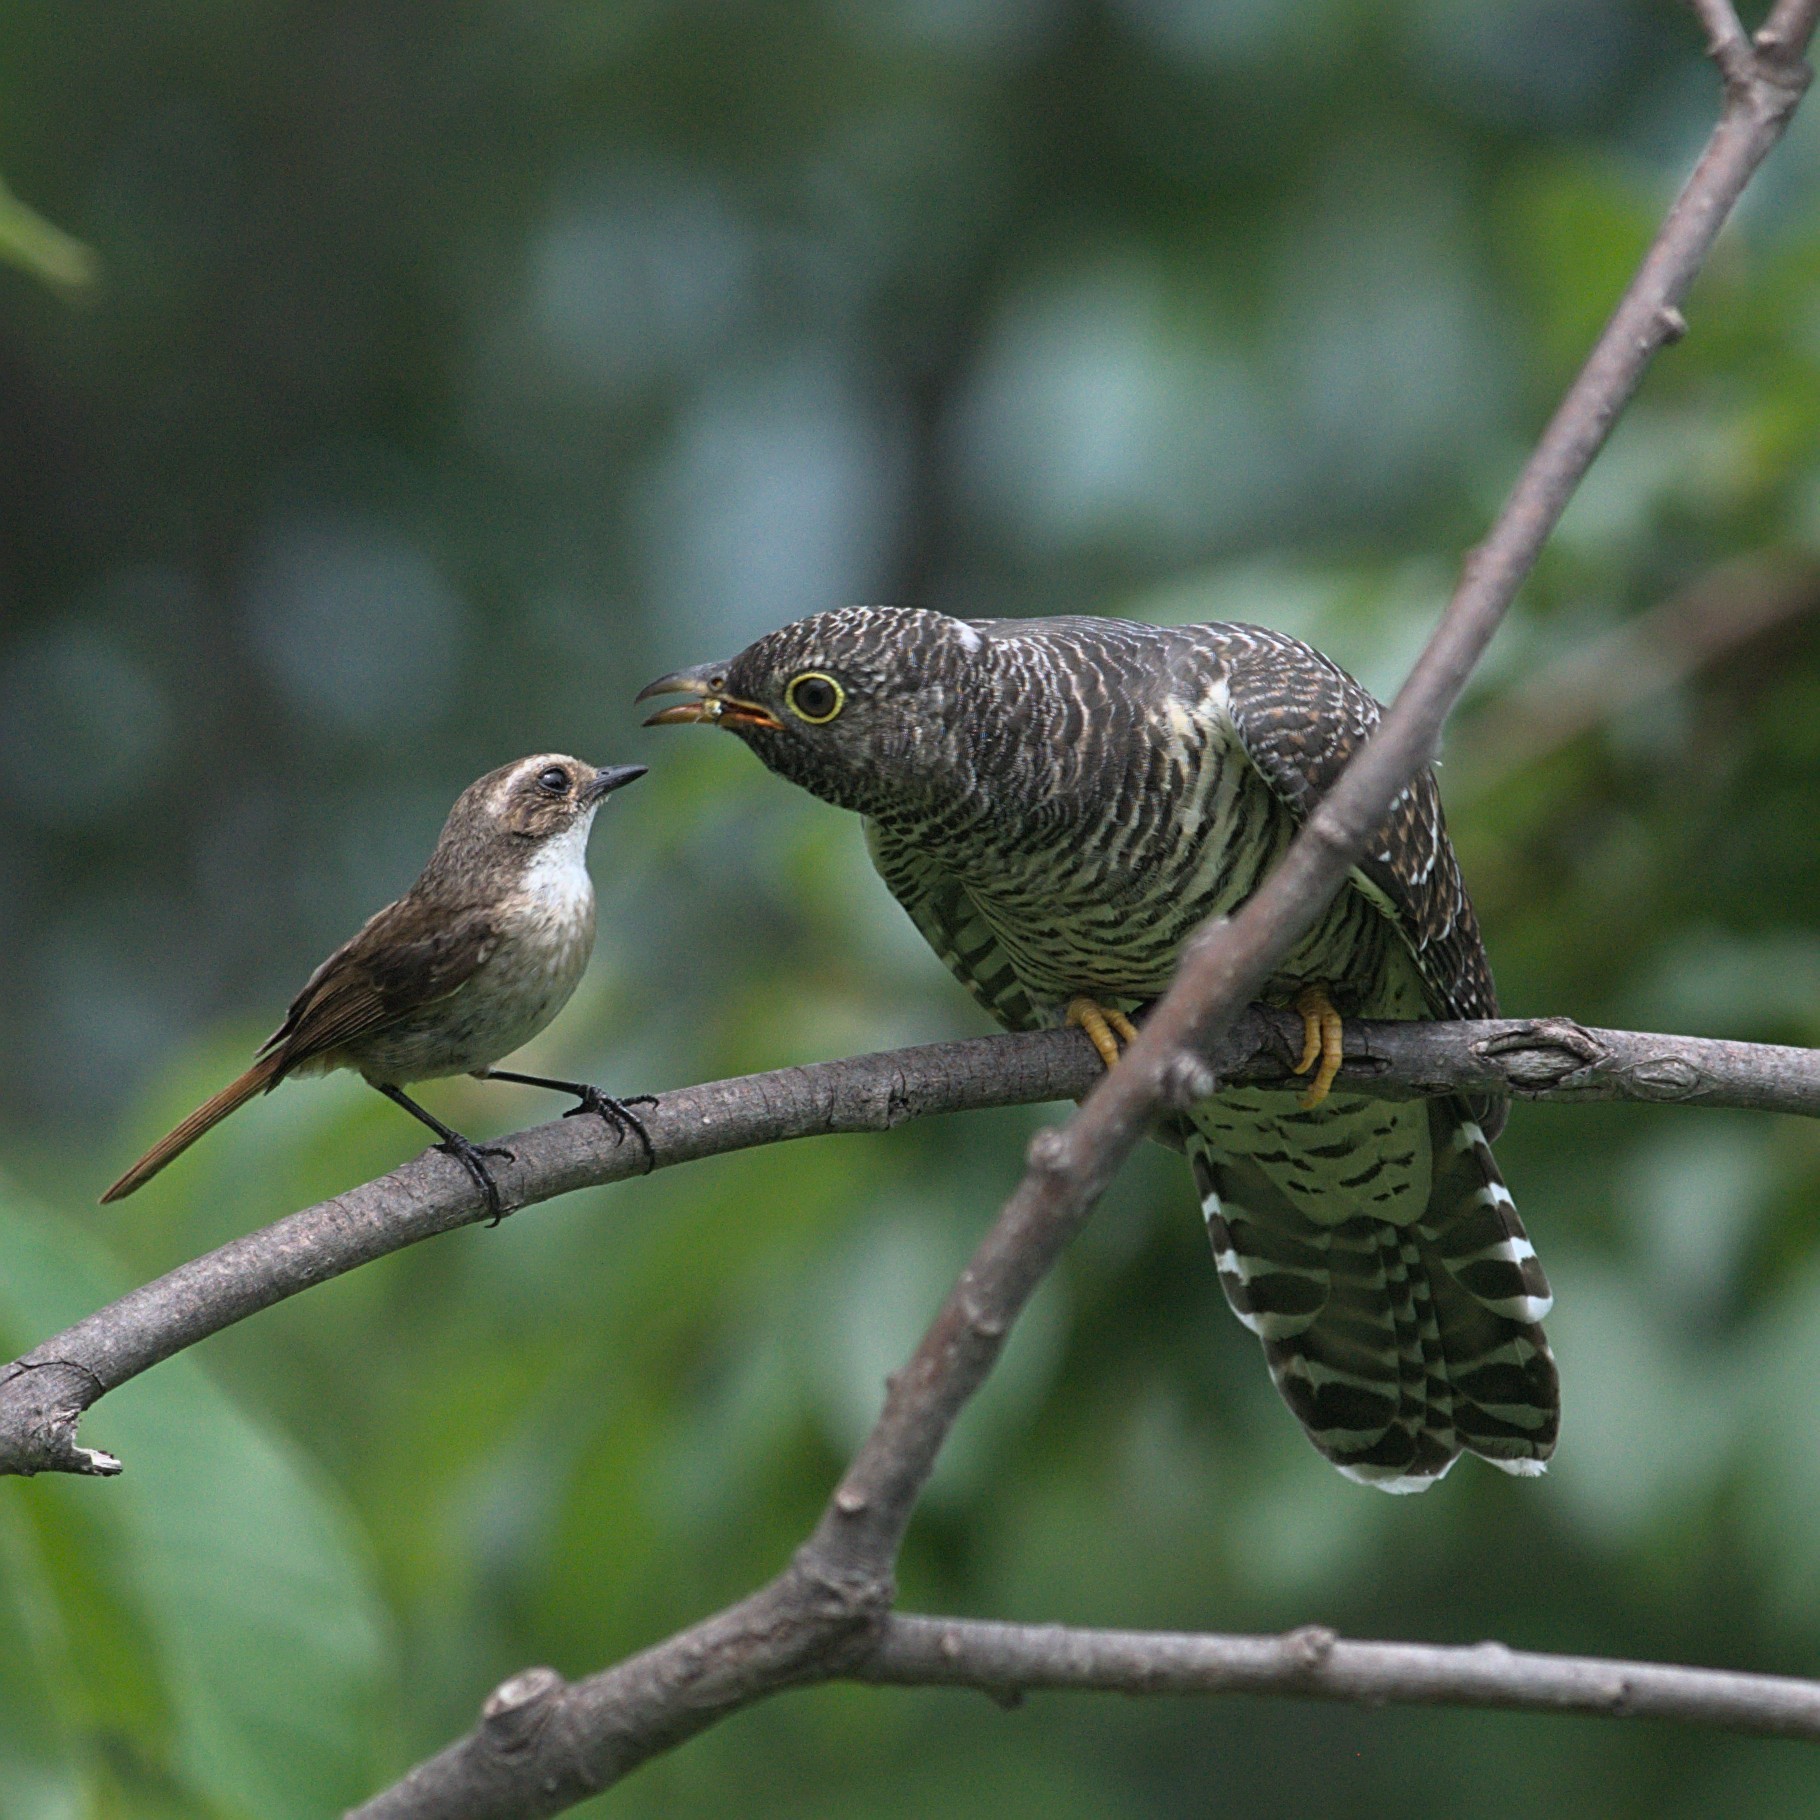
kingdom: Animalia
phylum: Chordata
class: Aves
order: Cuculiformes
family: Cuculidae
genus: Cuculus
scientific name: Cuculus canorus
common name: Common cuckoo
